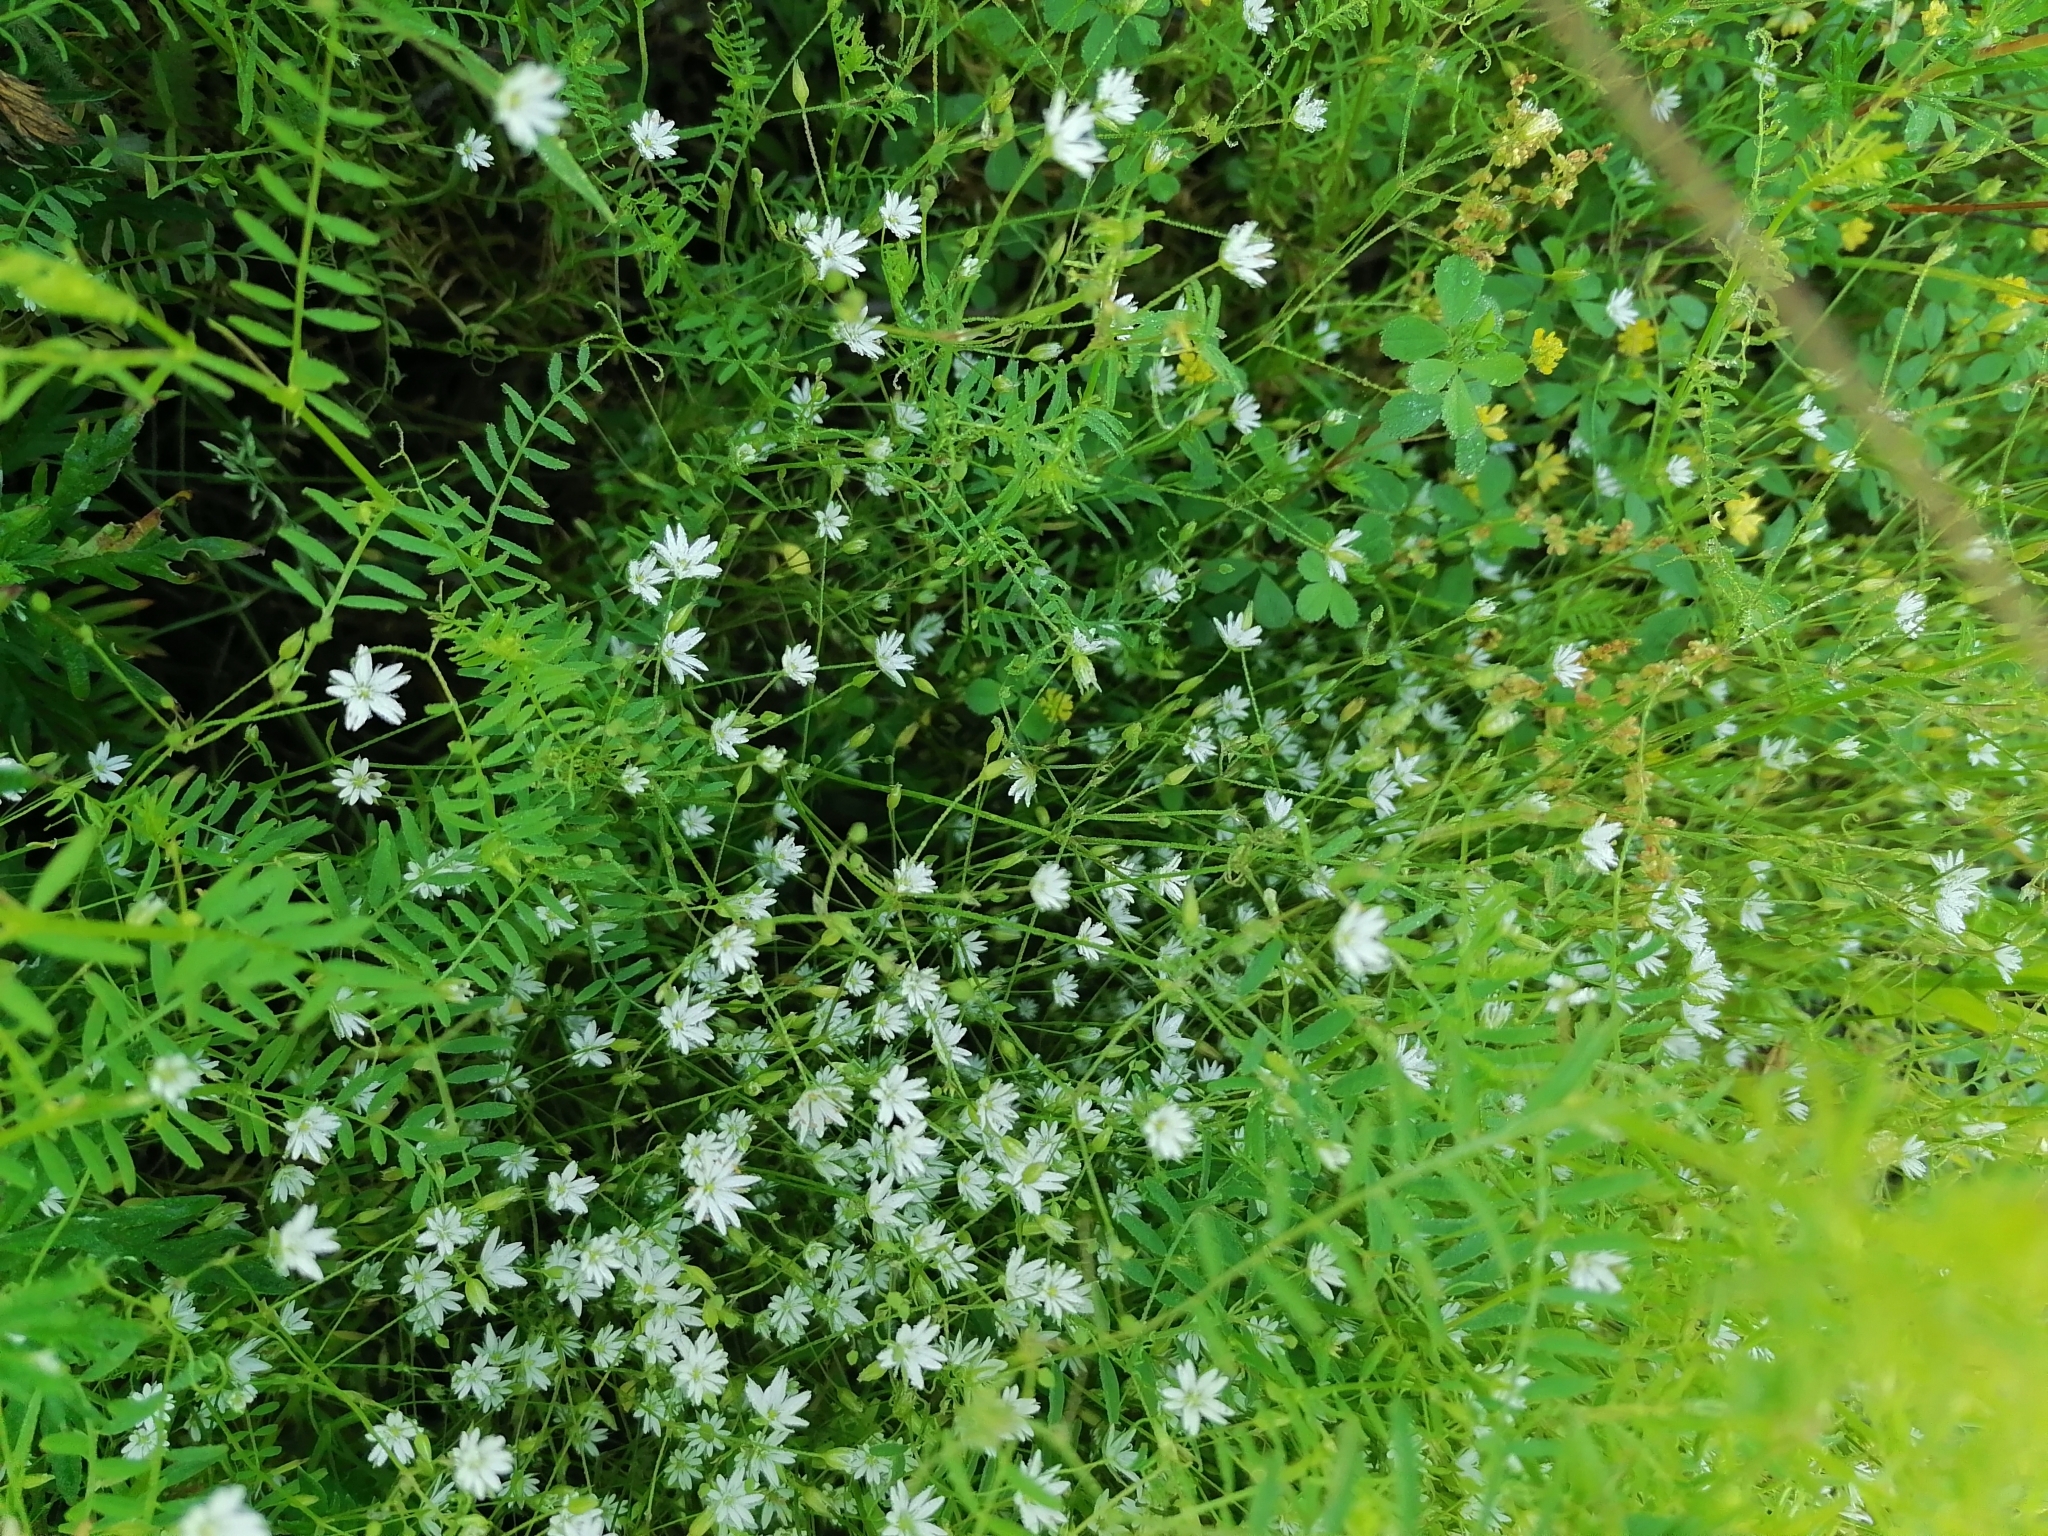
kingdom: Plantae
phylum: Tracheophyta
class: Magnoliopsida
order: Caryophyllales
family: Caryophyllaceae
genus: Stellaria
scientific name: Stellaria graminea
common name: Grass-like starwort
